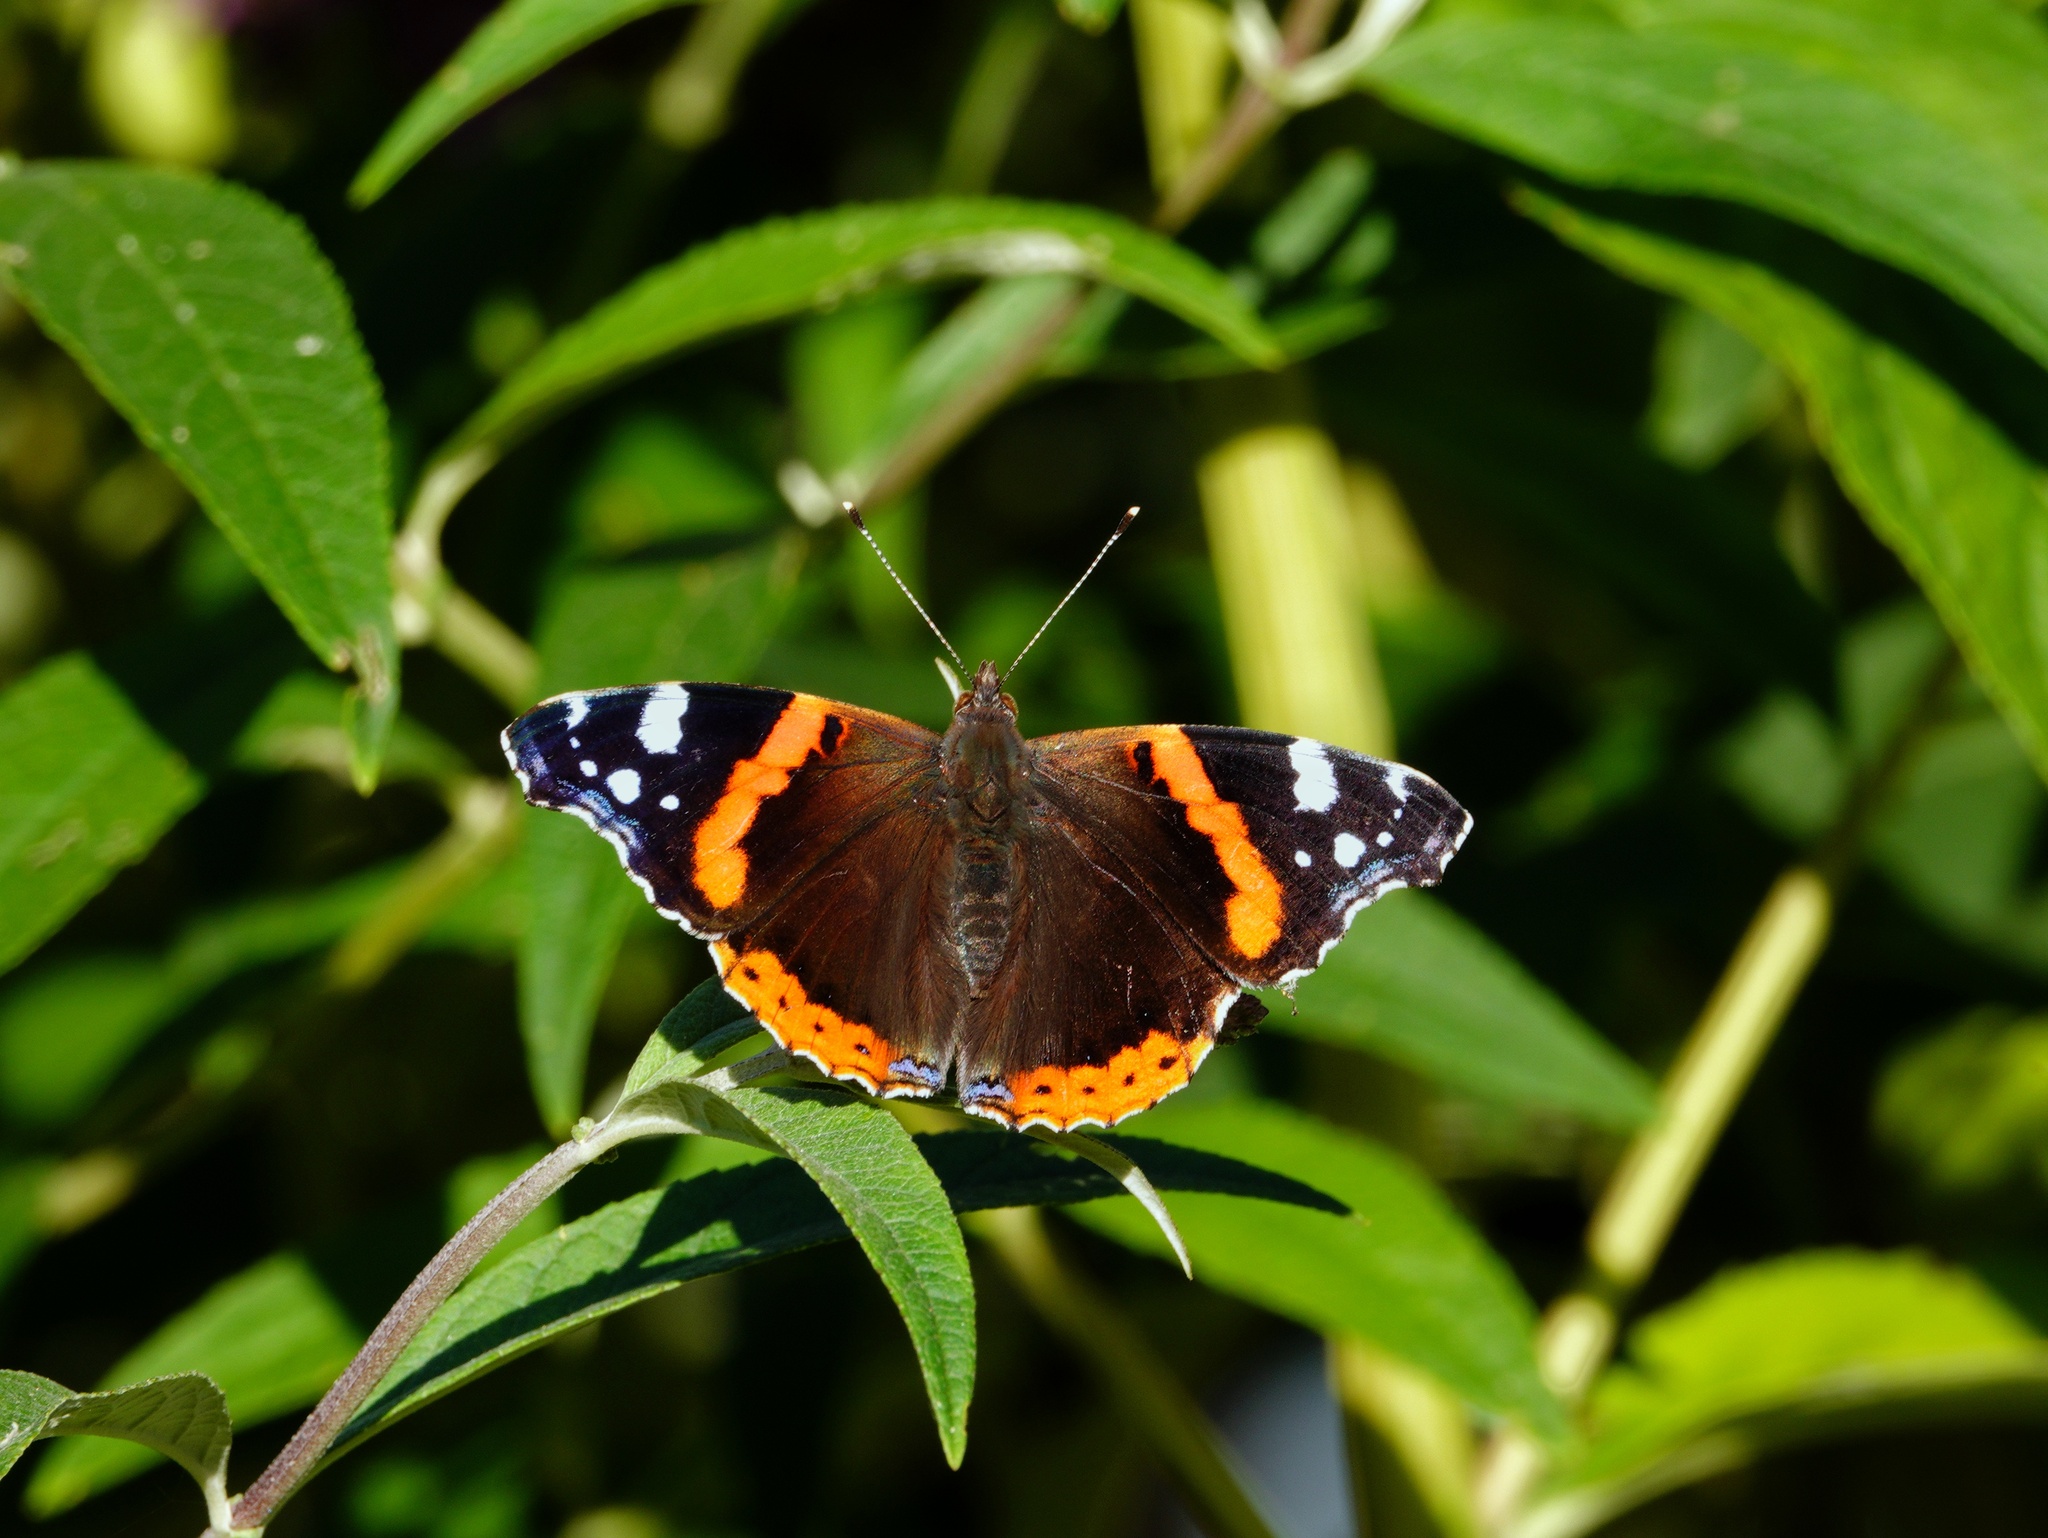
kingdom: Animalia
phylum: Arthropoda
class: Insecta
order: Lepidoptera
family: Nymphalidae
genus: Vanessa
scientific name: Vanessa atalanta
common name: Red admiral
